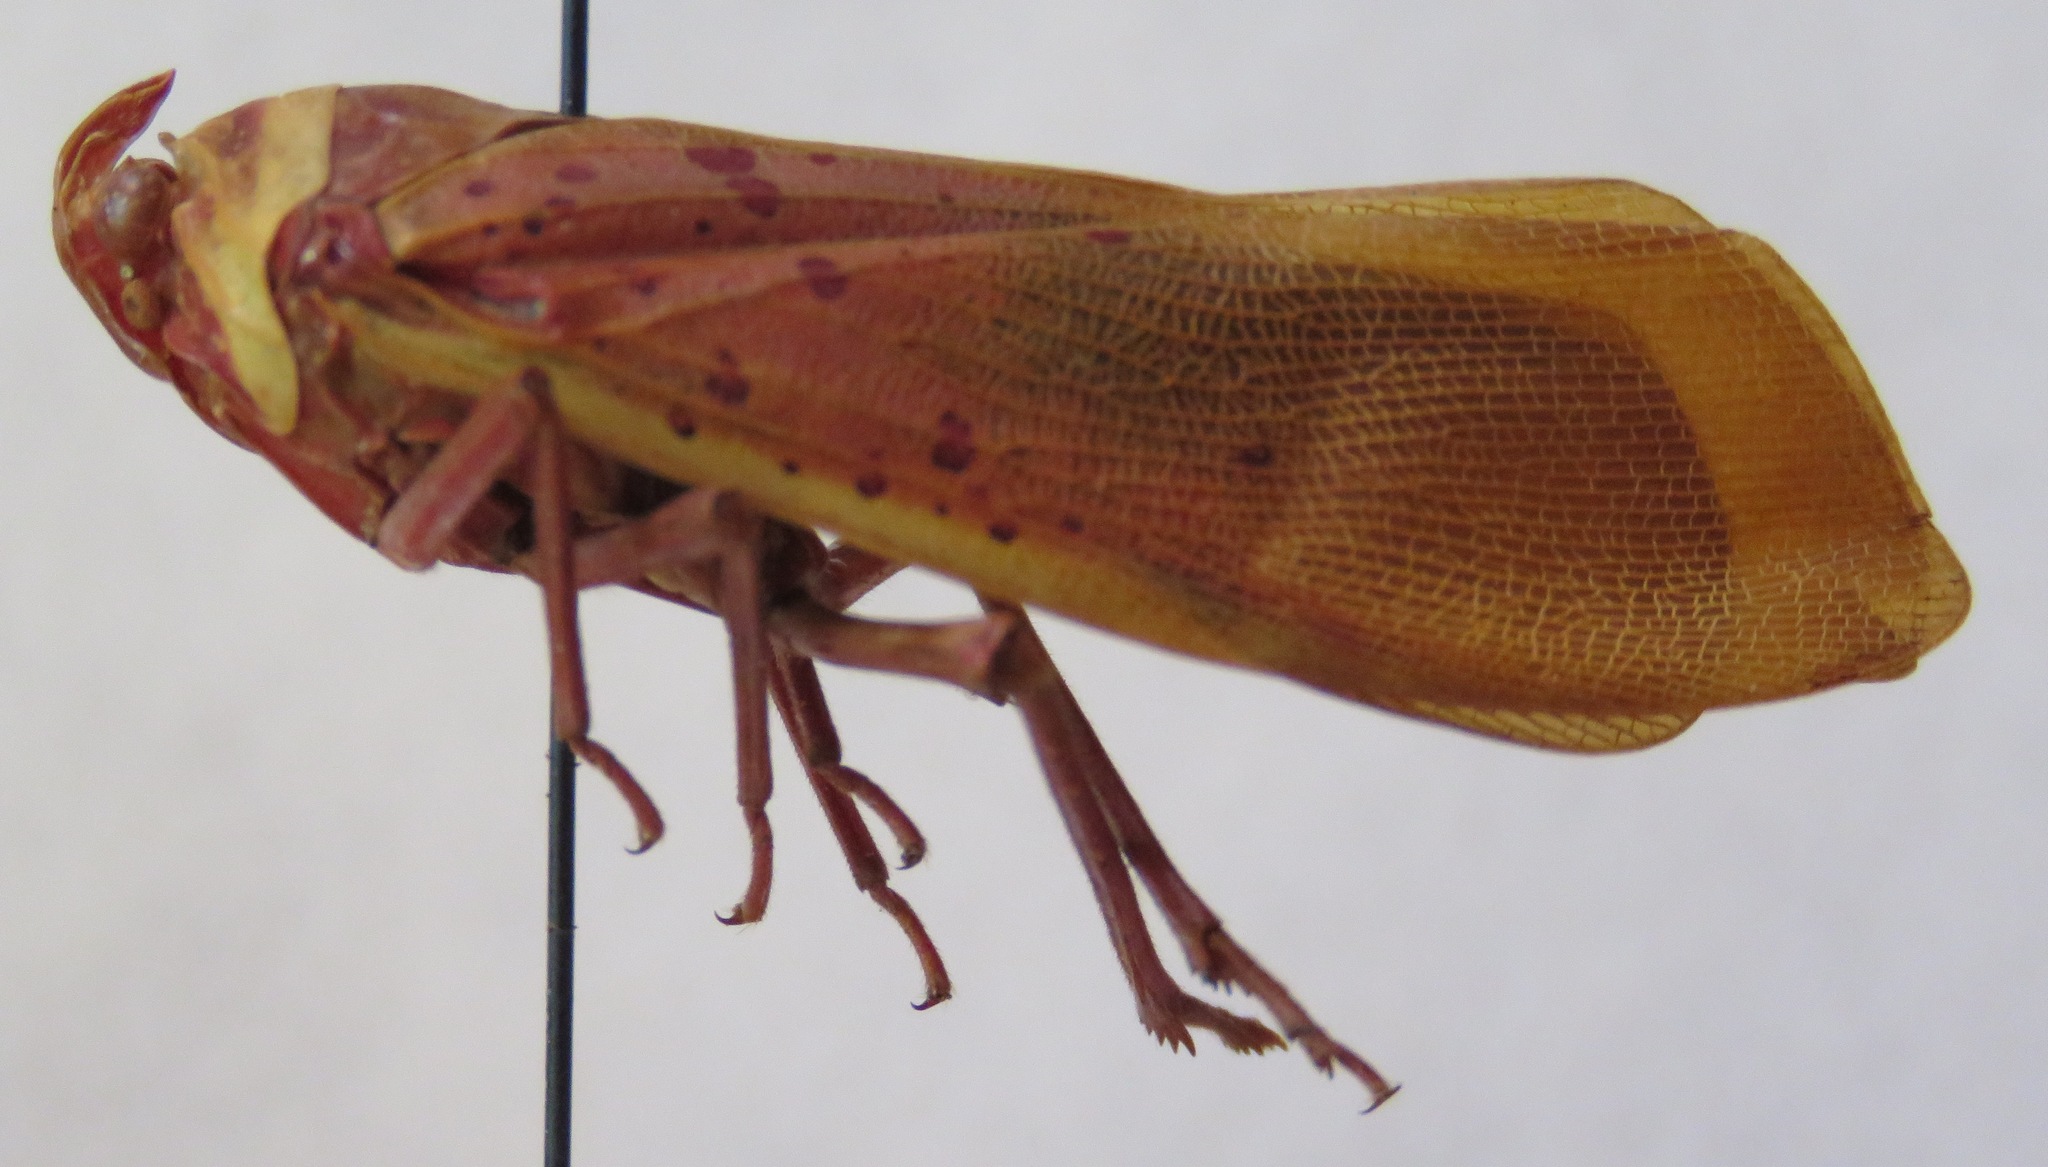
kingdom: Animalia
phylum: Arthropoda
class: Insecta
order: Hemiptera
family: Fulgoridae
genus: Copidocephala
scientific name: Copidocephala guttata
